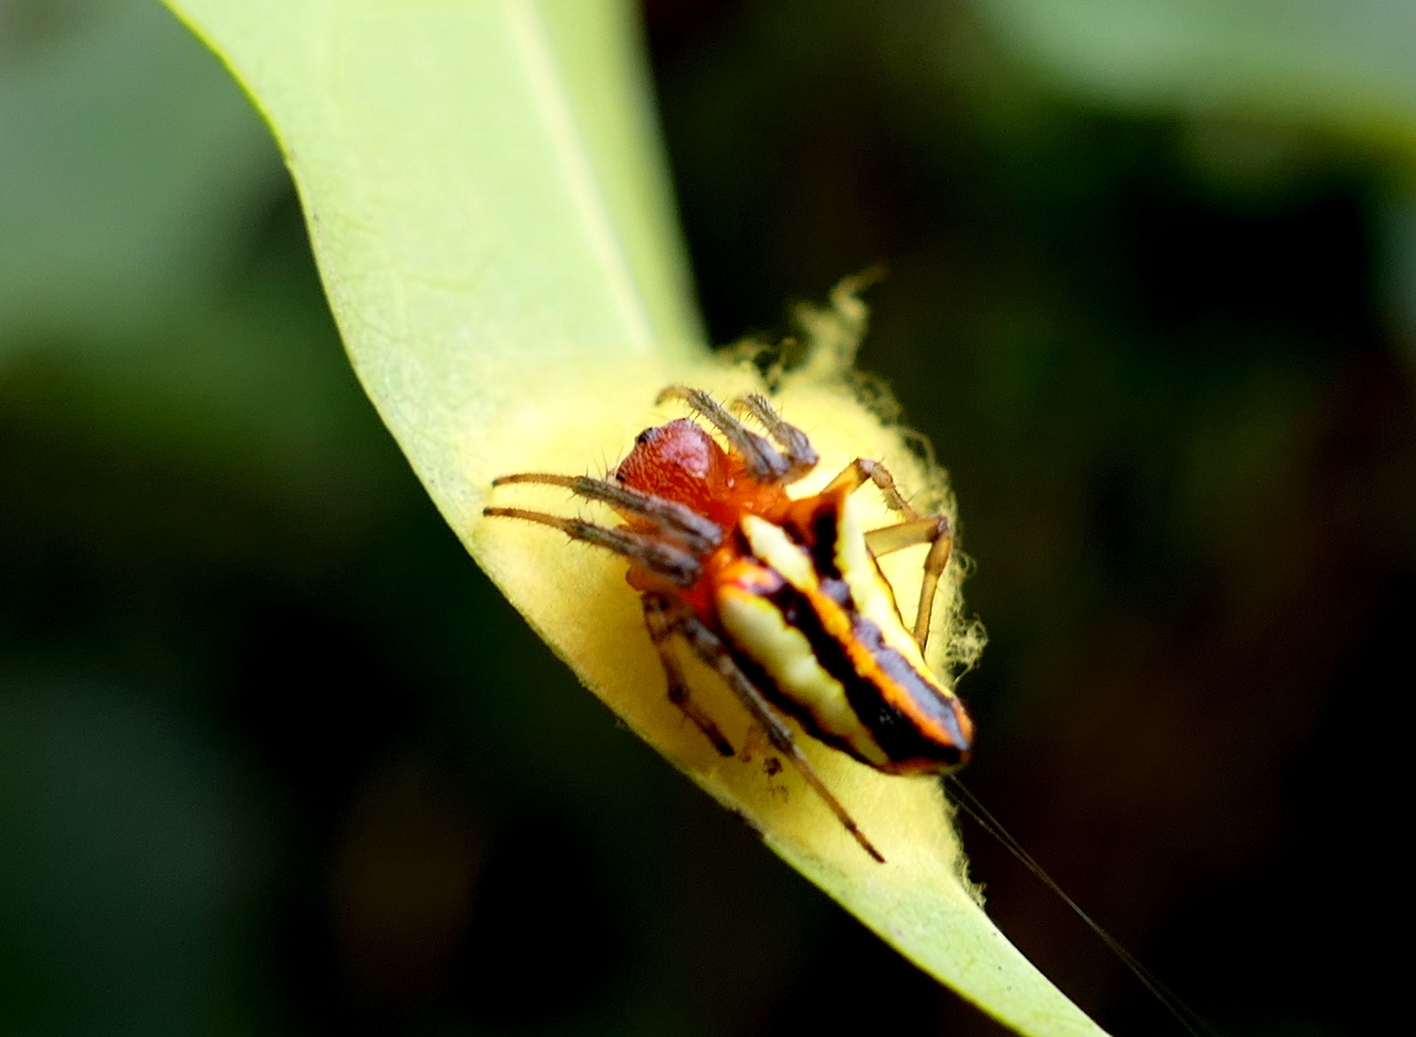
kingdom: Animalia
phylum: Arthropoda
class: Arachnida
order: Araneae
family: Araneidae
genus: Alpaida
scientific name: Alpaida bicornuta
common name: Orb weavers
